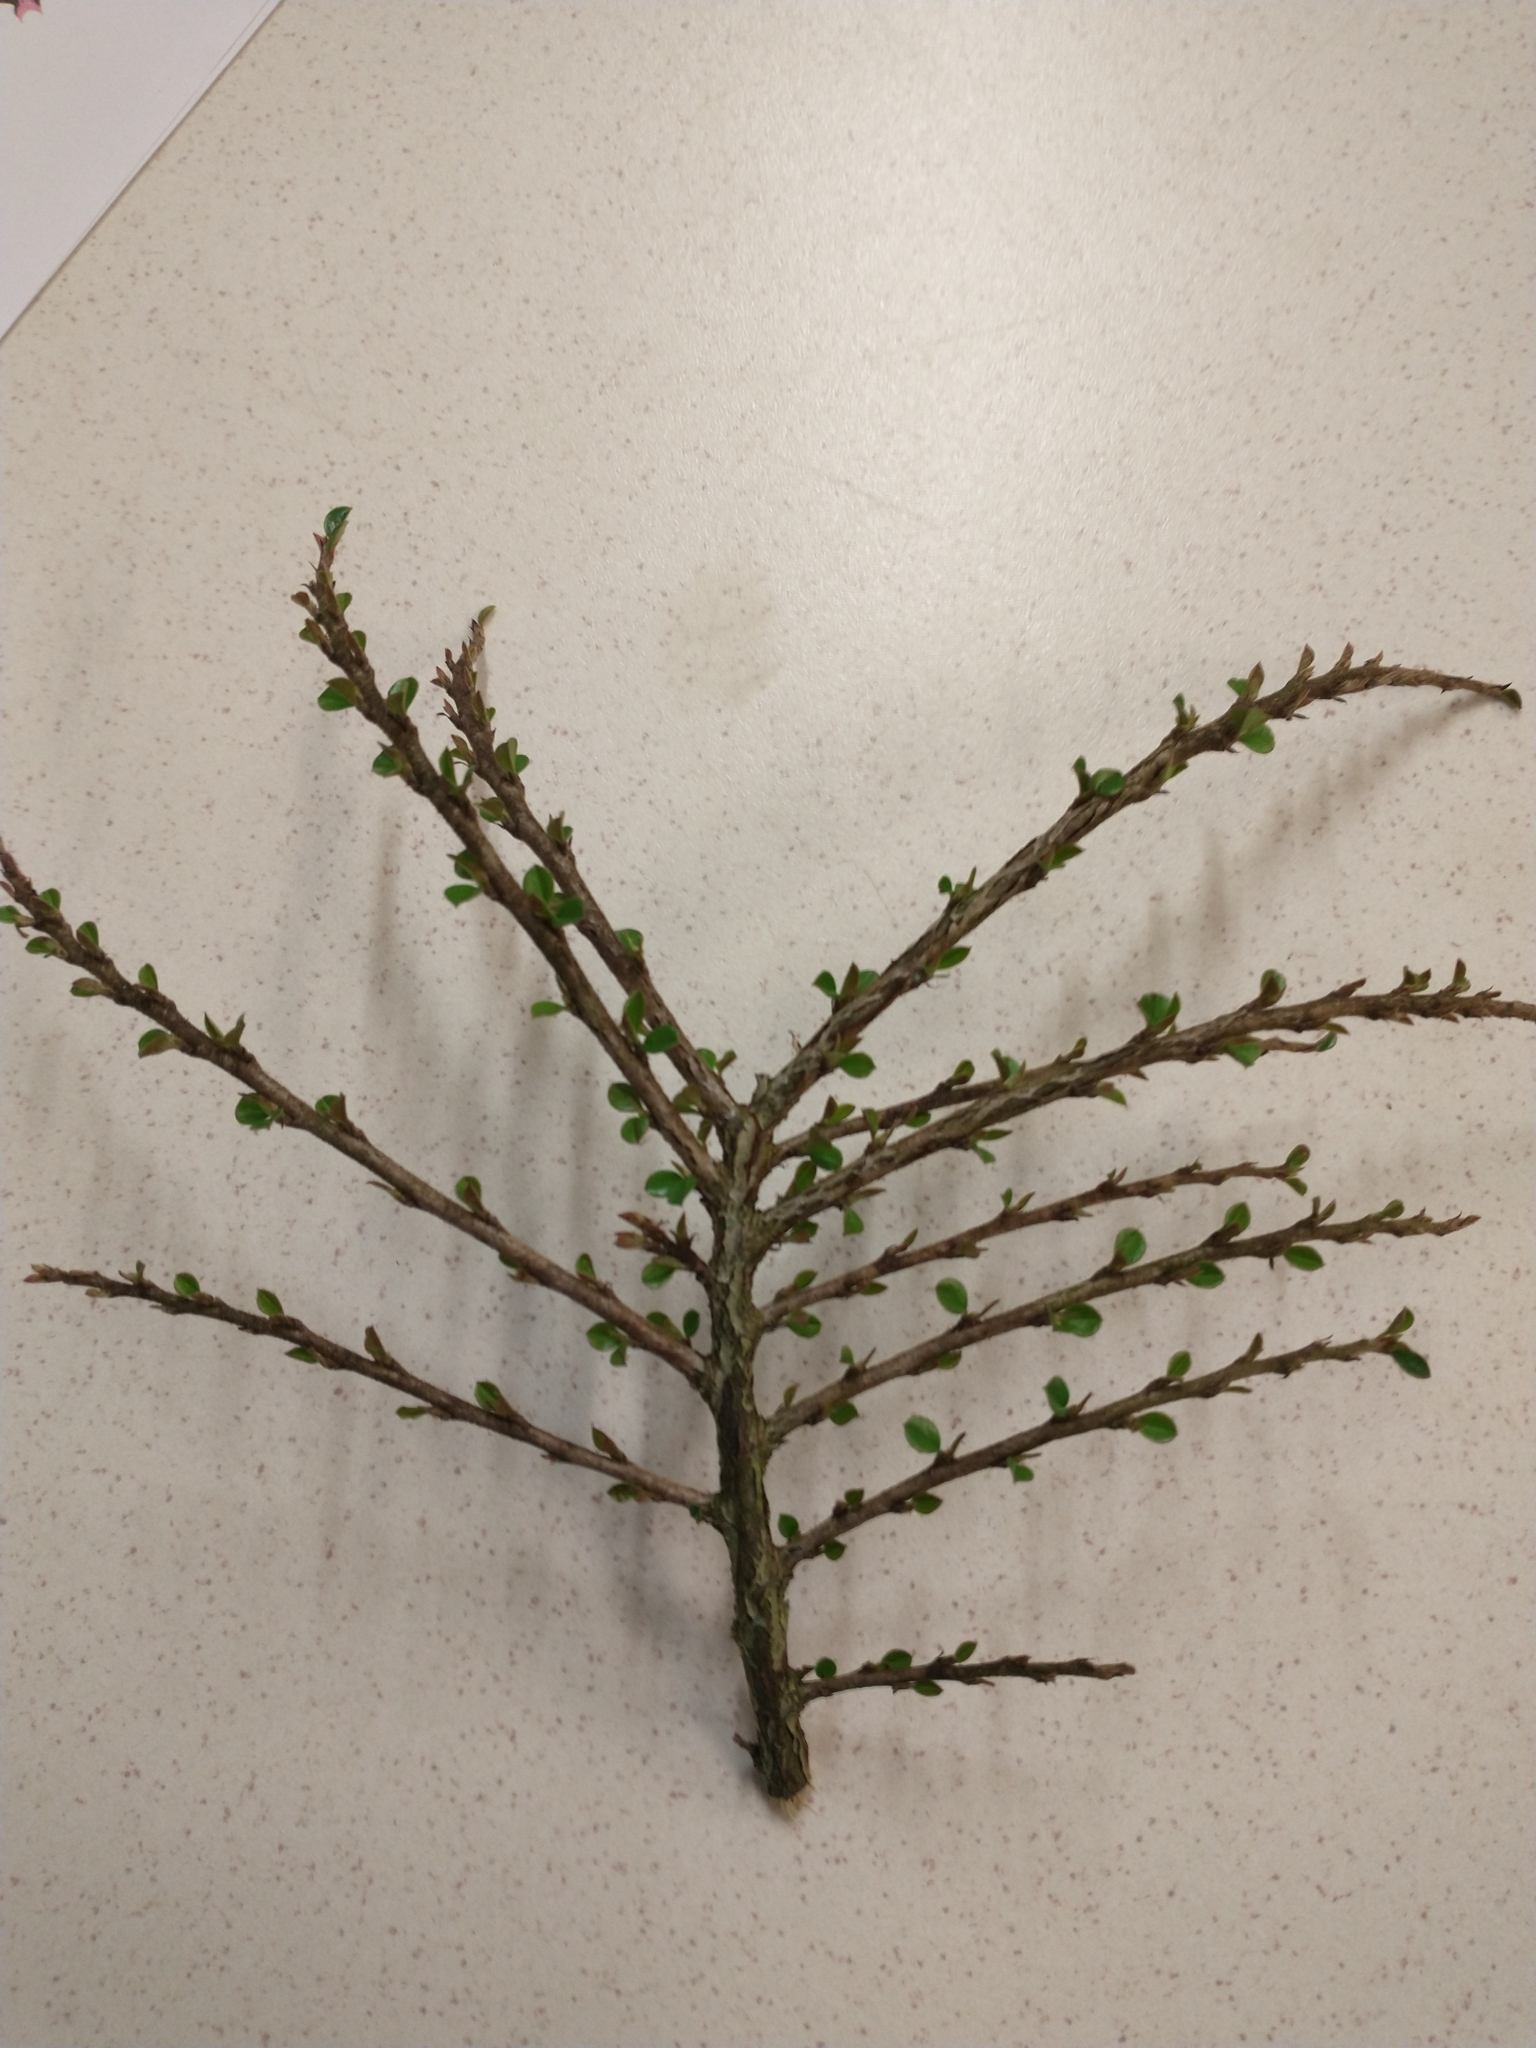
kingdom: Plantae
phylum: Tracheophyta
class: Magnoliopsida
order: Rosales
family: Rosaceae
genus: Cotoneaster
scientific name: Cotoneaster horizontalis
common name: Wall cotoneaster
